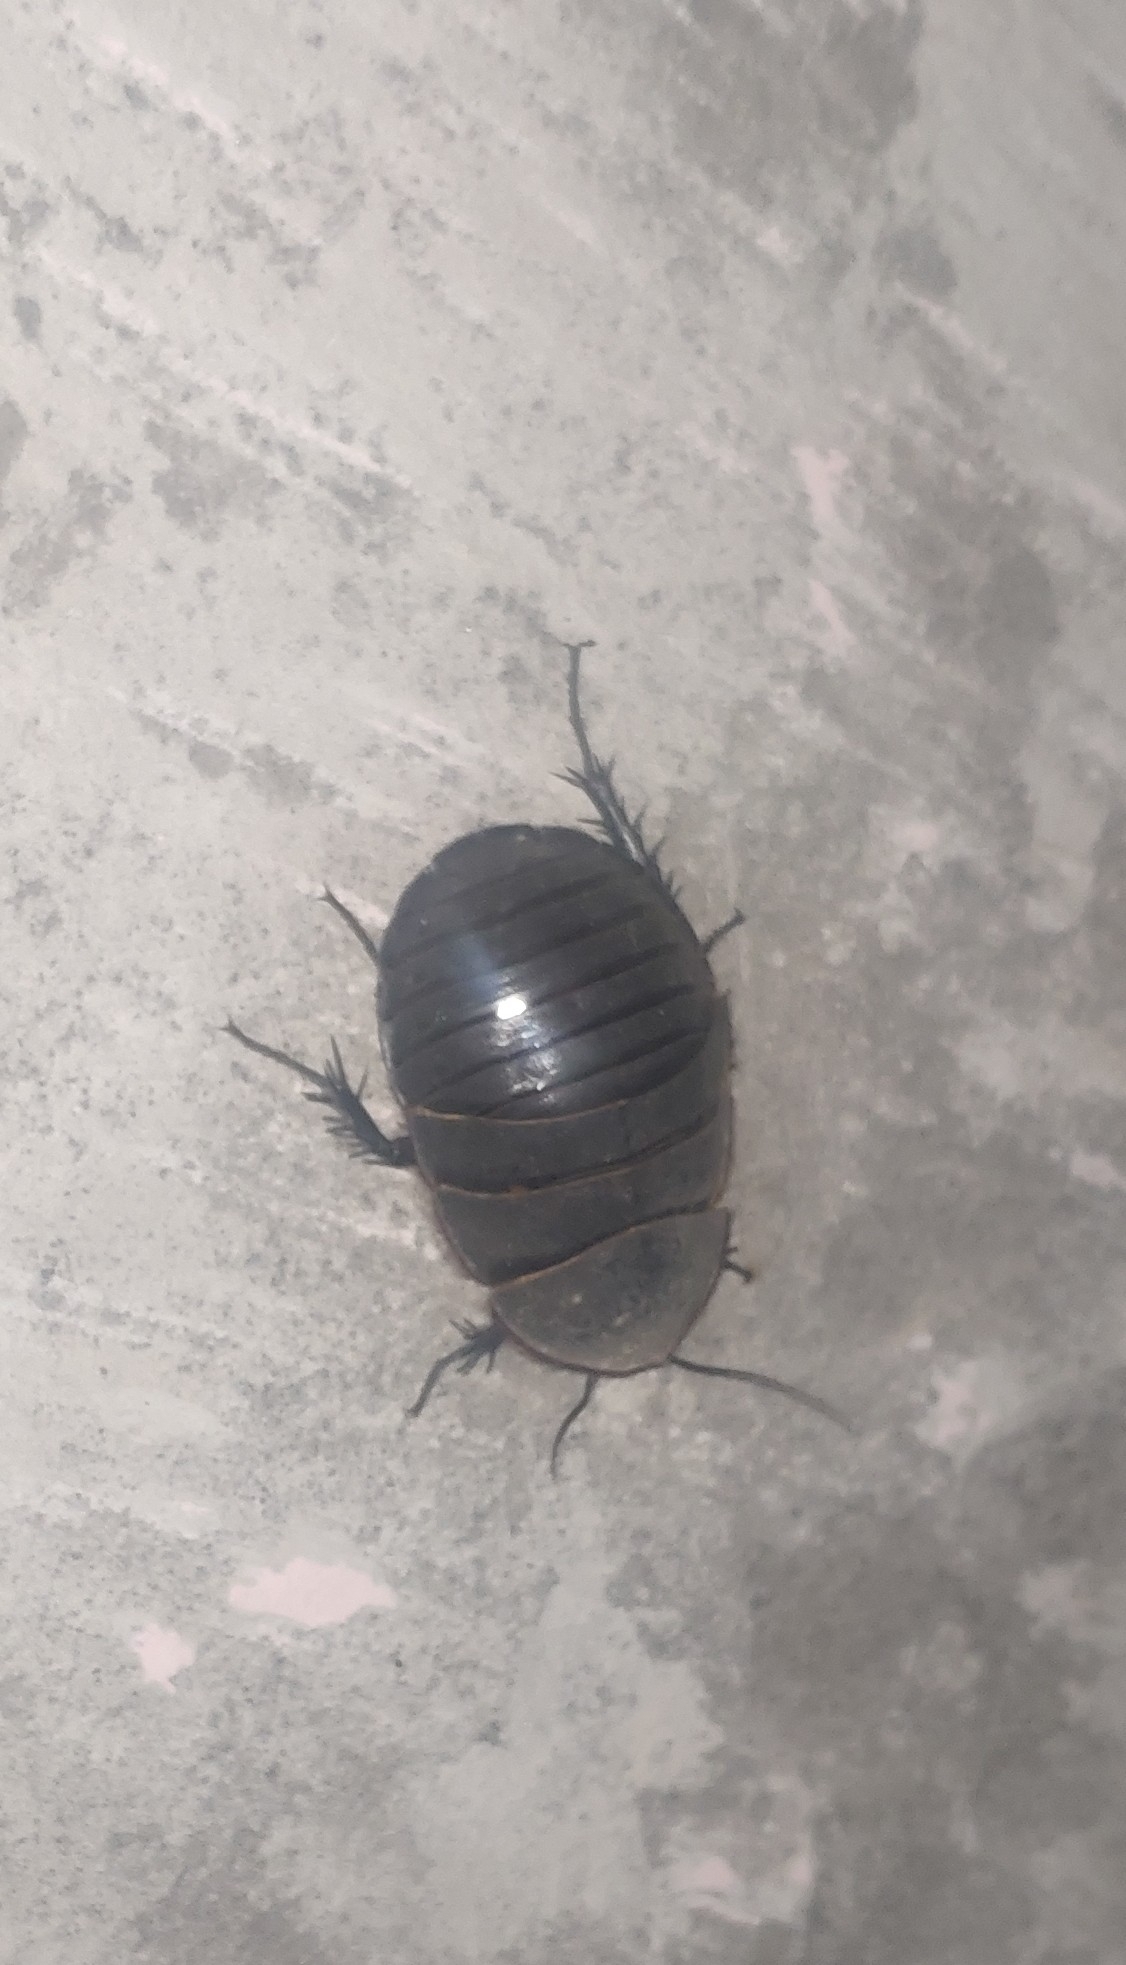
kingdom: Animalia
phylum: Arthropoda
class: Insecta
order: Blattodea
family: Corydiidae
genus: Polyphaga
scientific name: Polyphaga saussurei
